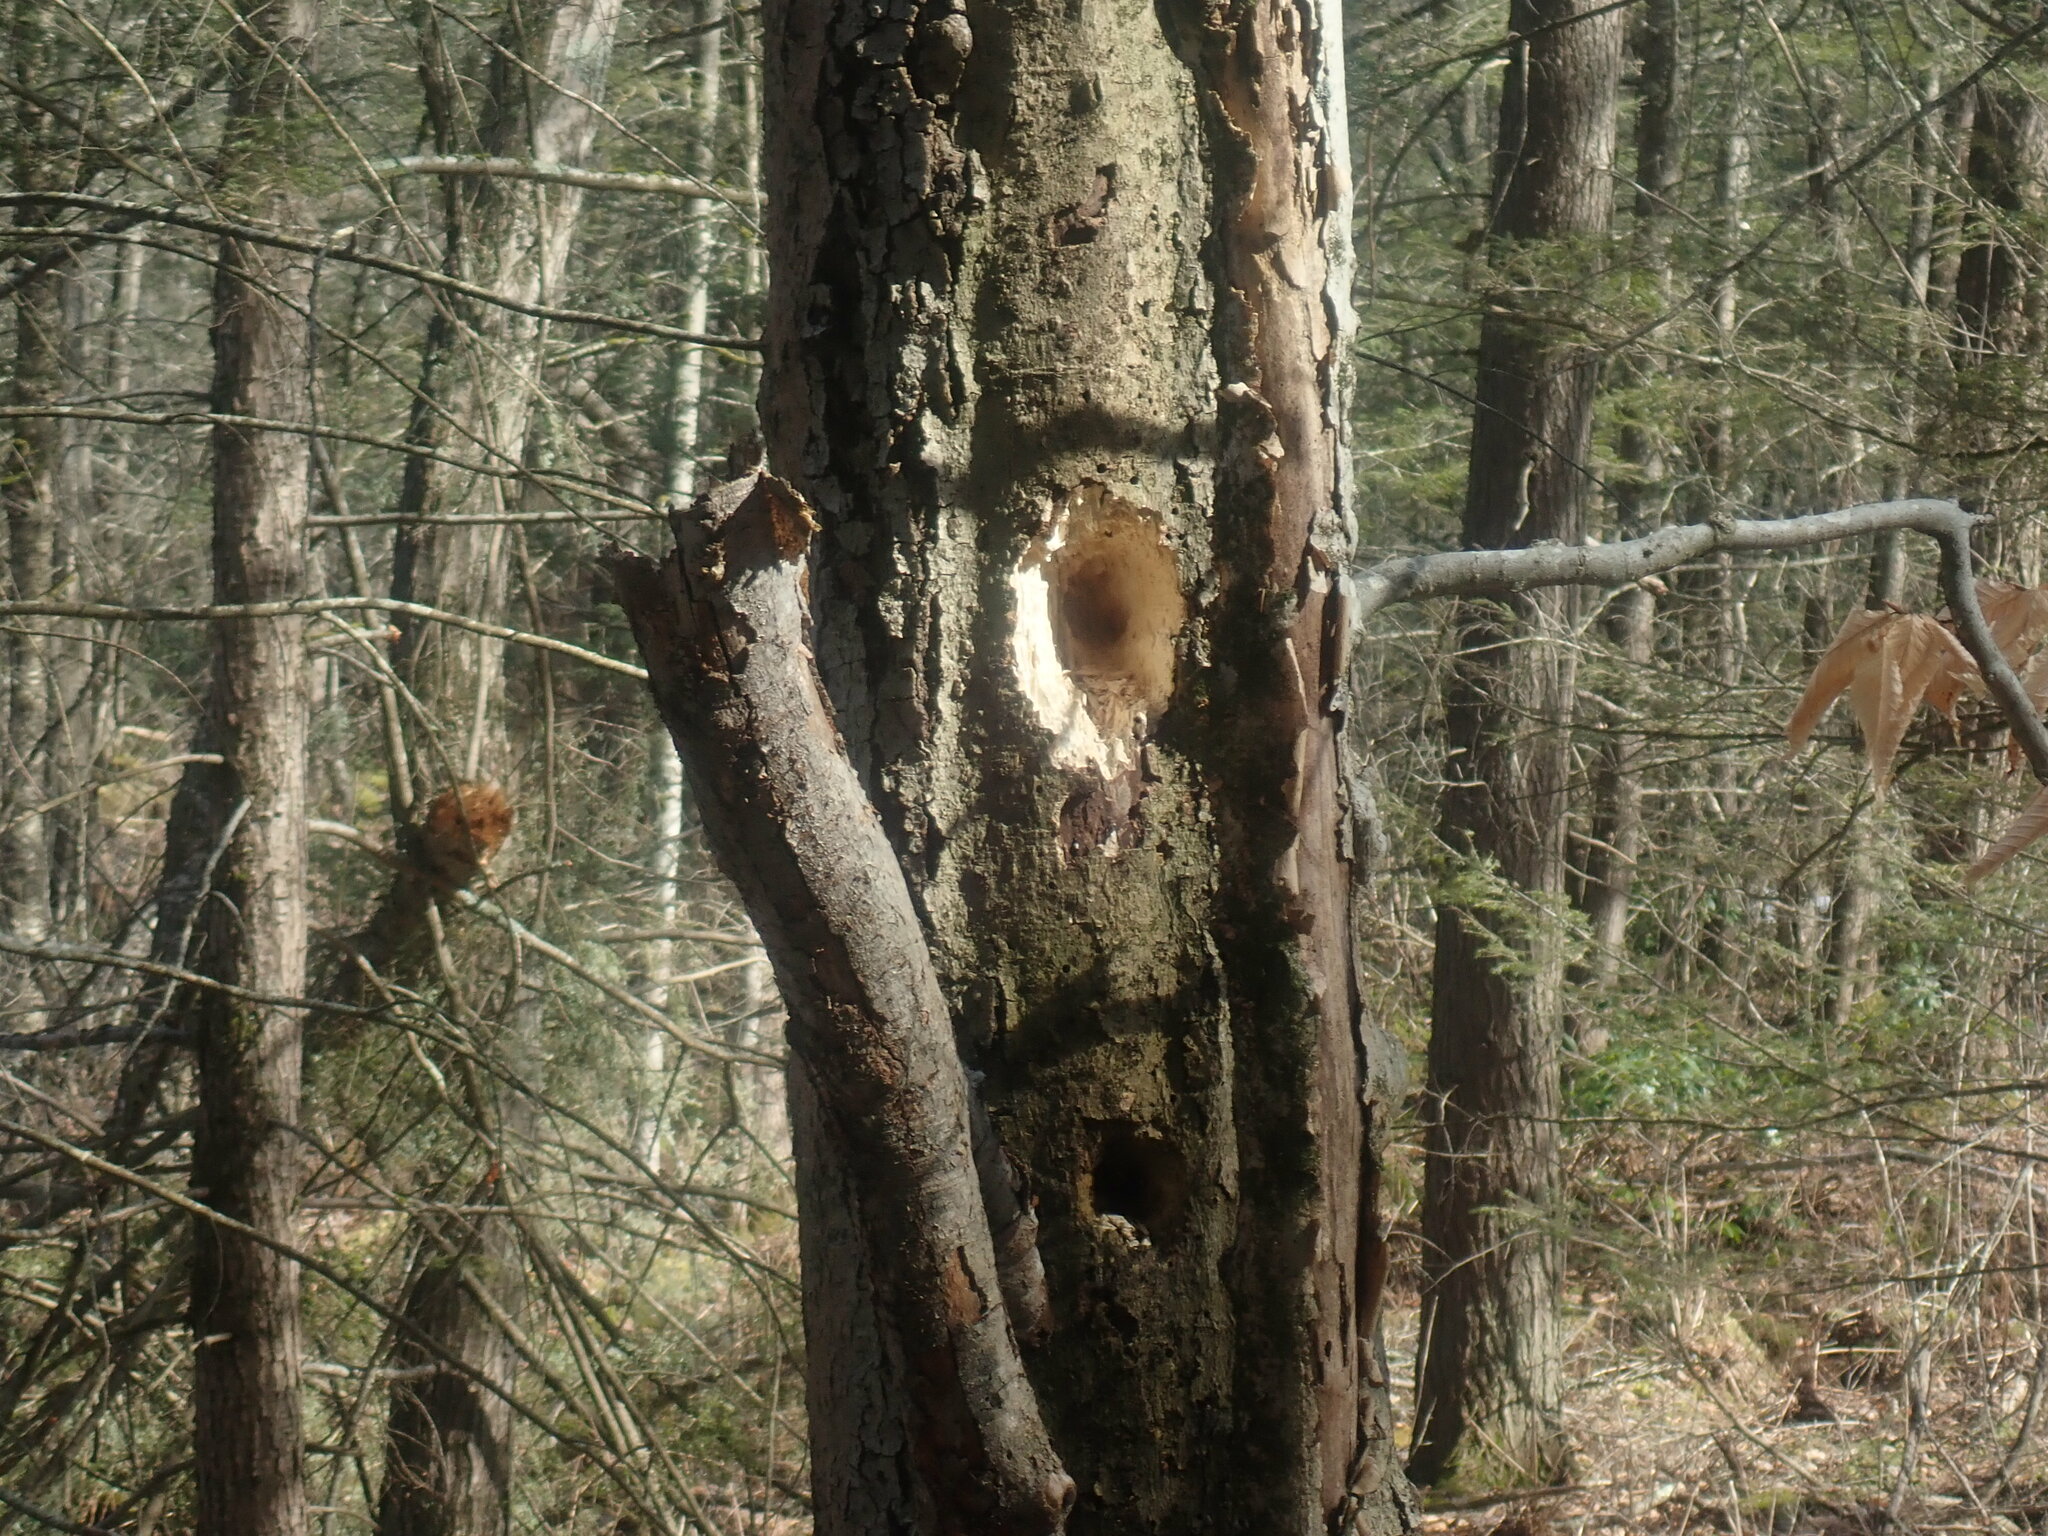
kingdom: Animalia
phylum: Chordata
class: Aves
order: Piciformes
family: Picidae
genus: Dryocopus
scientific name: Dryocopus pileatus
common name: Pileated woodpecker
